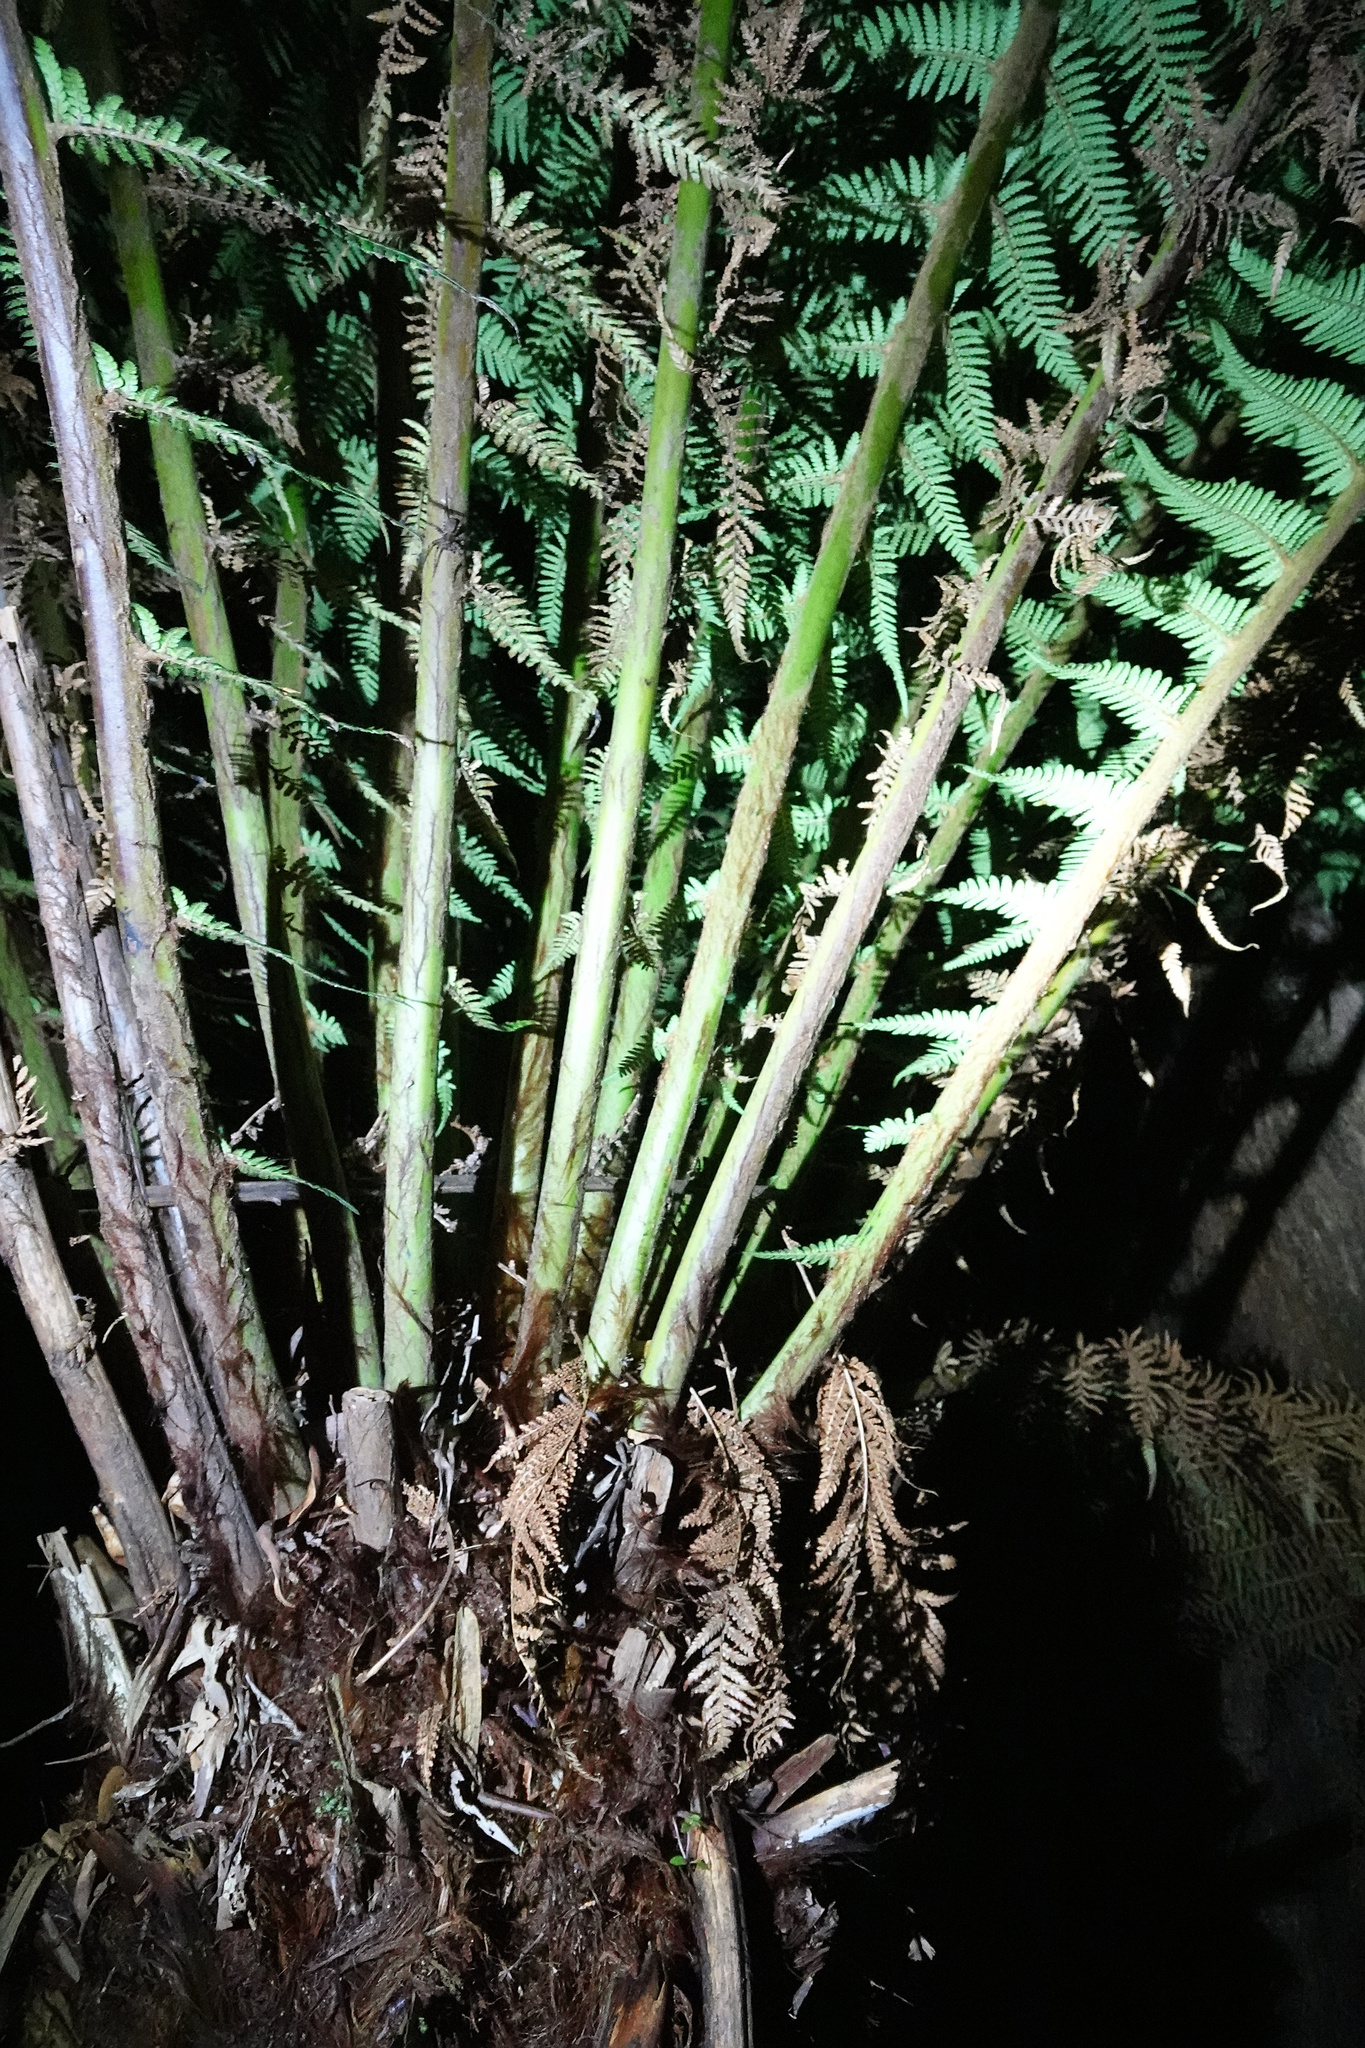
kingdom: Plantae
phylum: Tracheophyta
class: Polypodiopsida
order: Cyatheales
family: Dicksoniaceae
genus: Dicksonia
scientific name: Dicksonia antarctica
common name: Australian treefern
